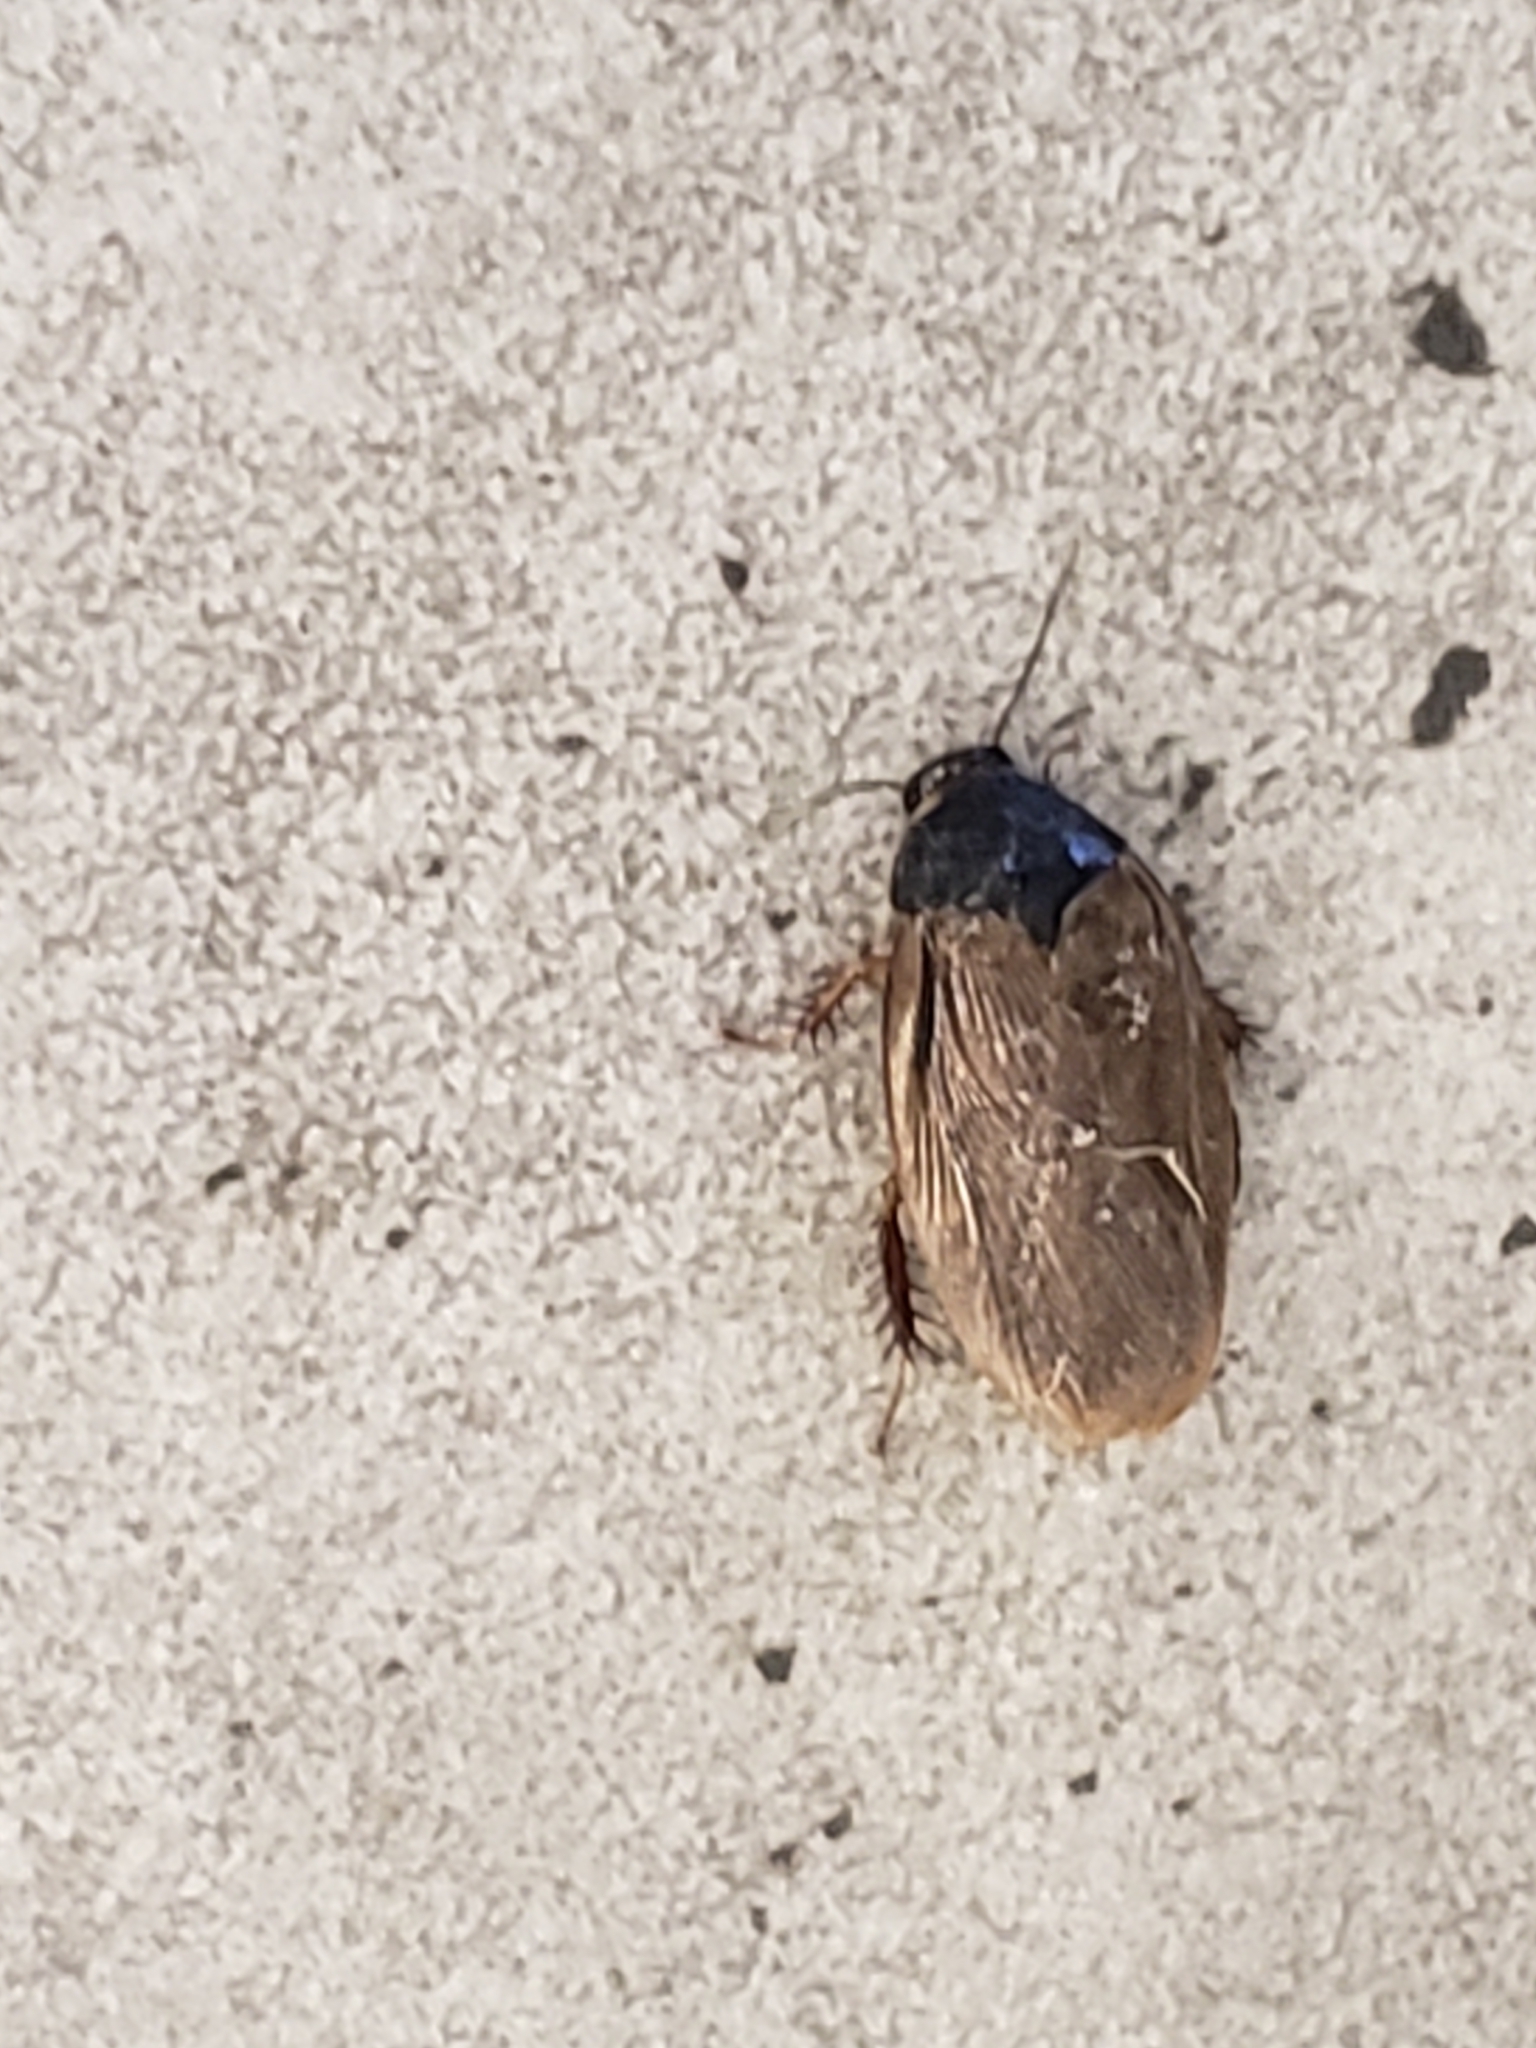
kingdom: Animalia
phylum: Arthropoda
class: Insecta
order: Blattodea
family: Blaberidae
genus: Pycnoscelus
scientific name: Pycnoscelus surinamensis
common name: Surinam cockroach
